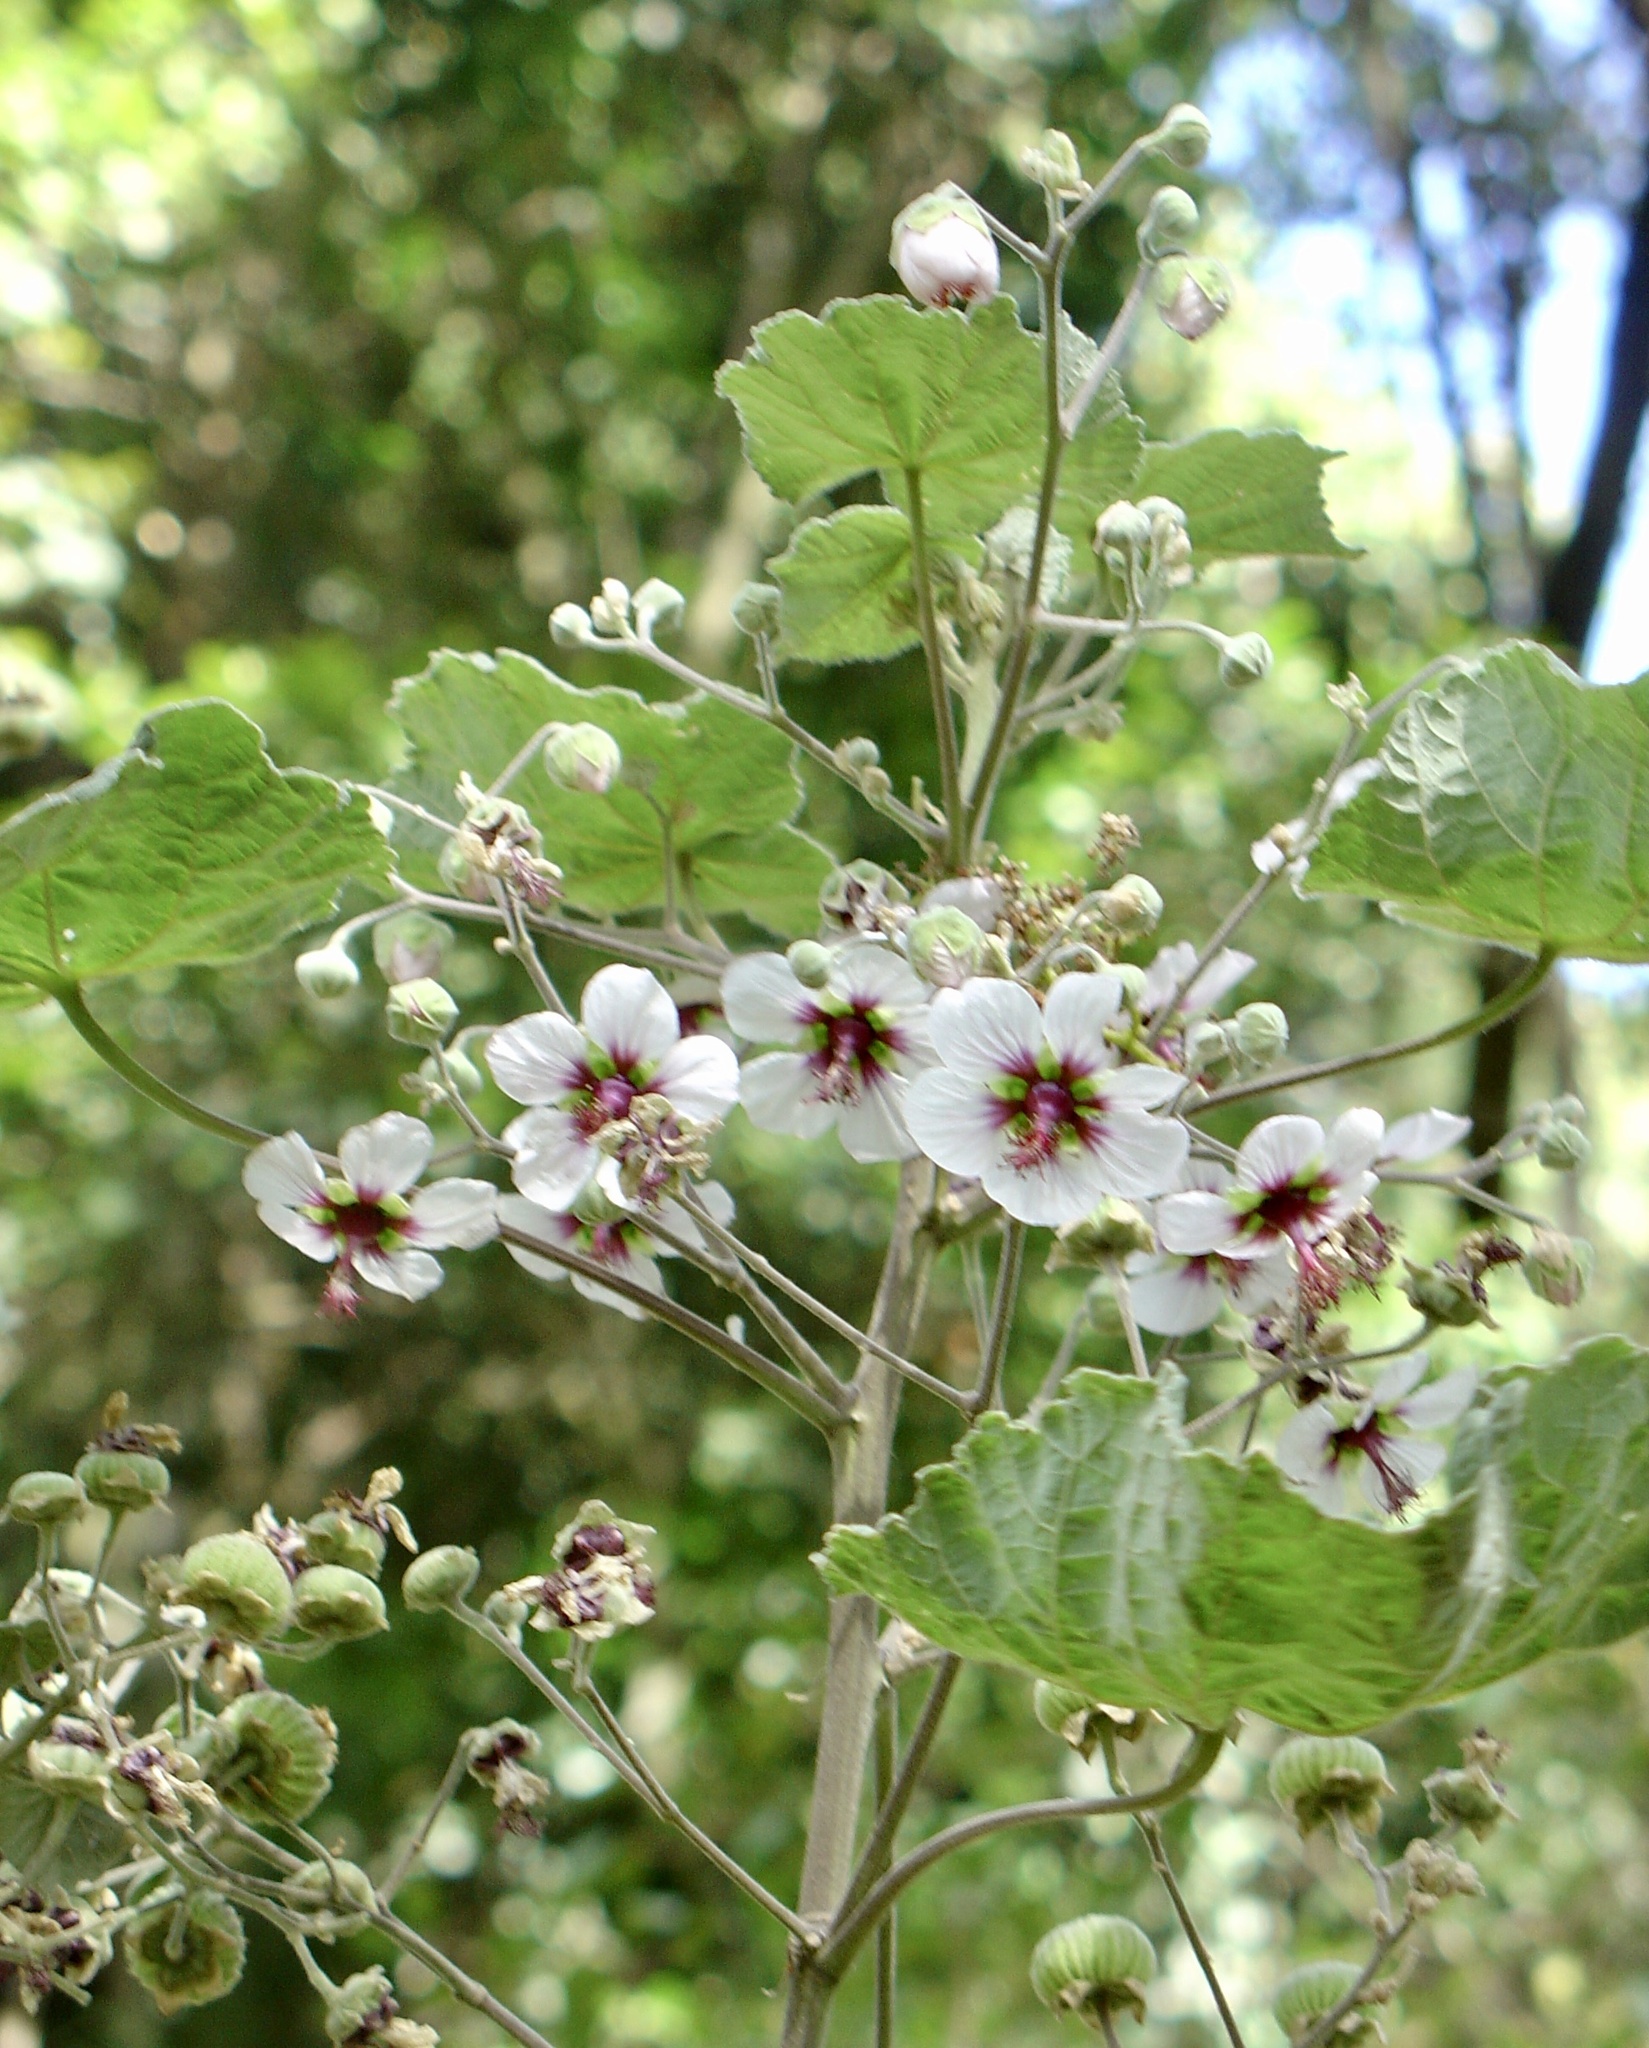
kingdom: Plantae
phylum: Tracheophyta
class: Magnoliopsida
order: Malvales
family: Malvaceae
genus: Abutilon
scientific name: Abutilon longicuspe
